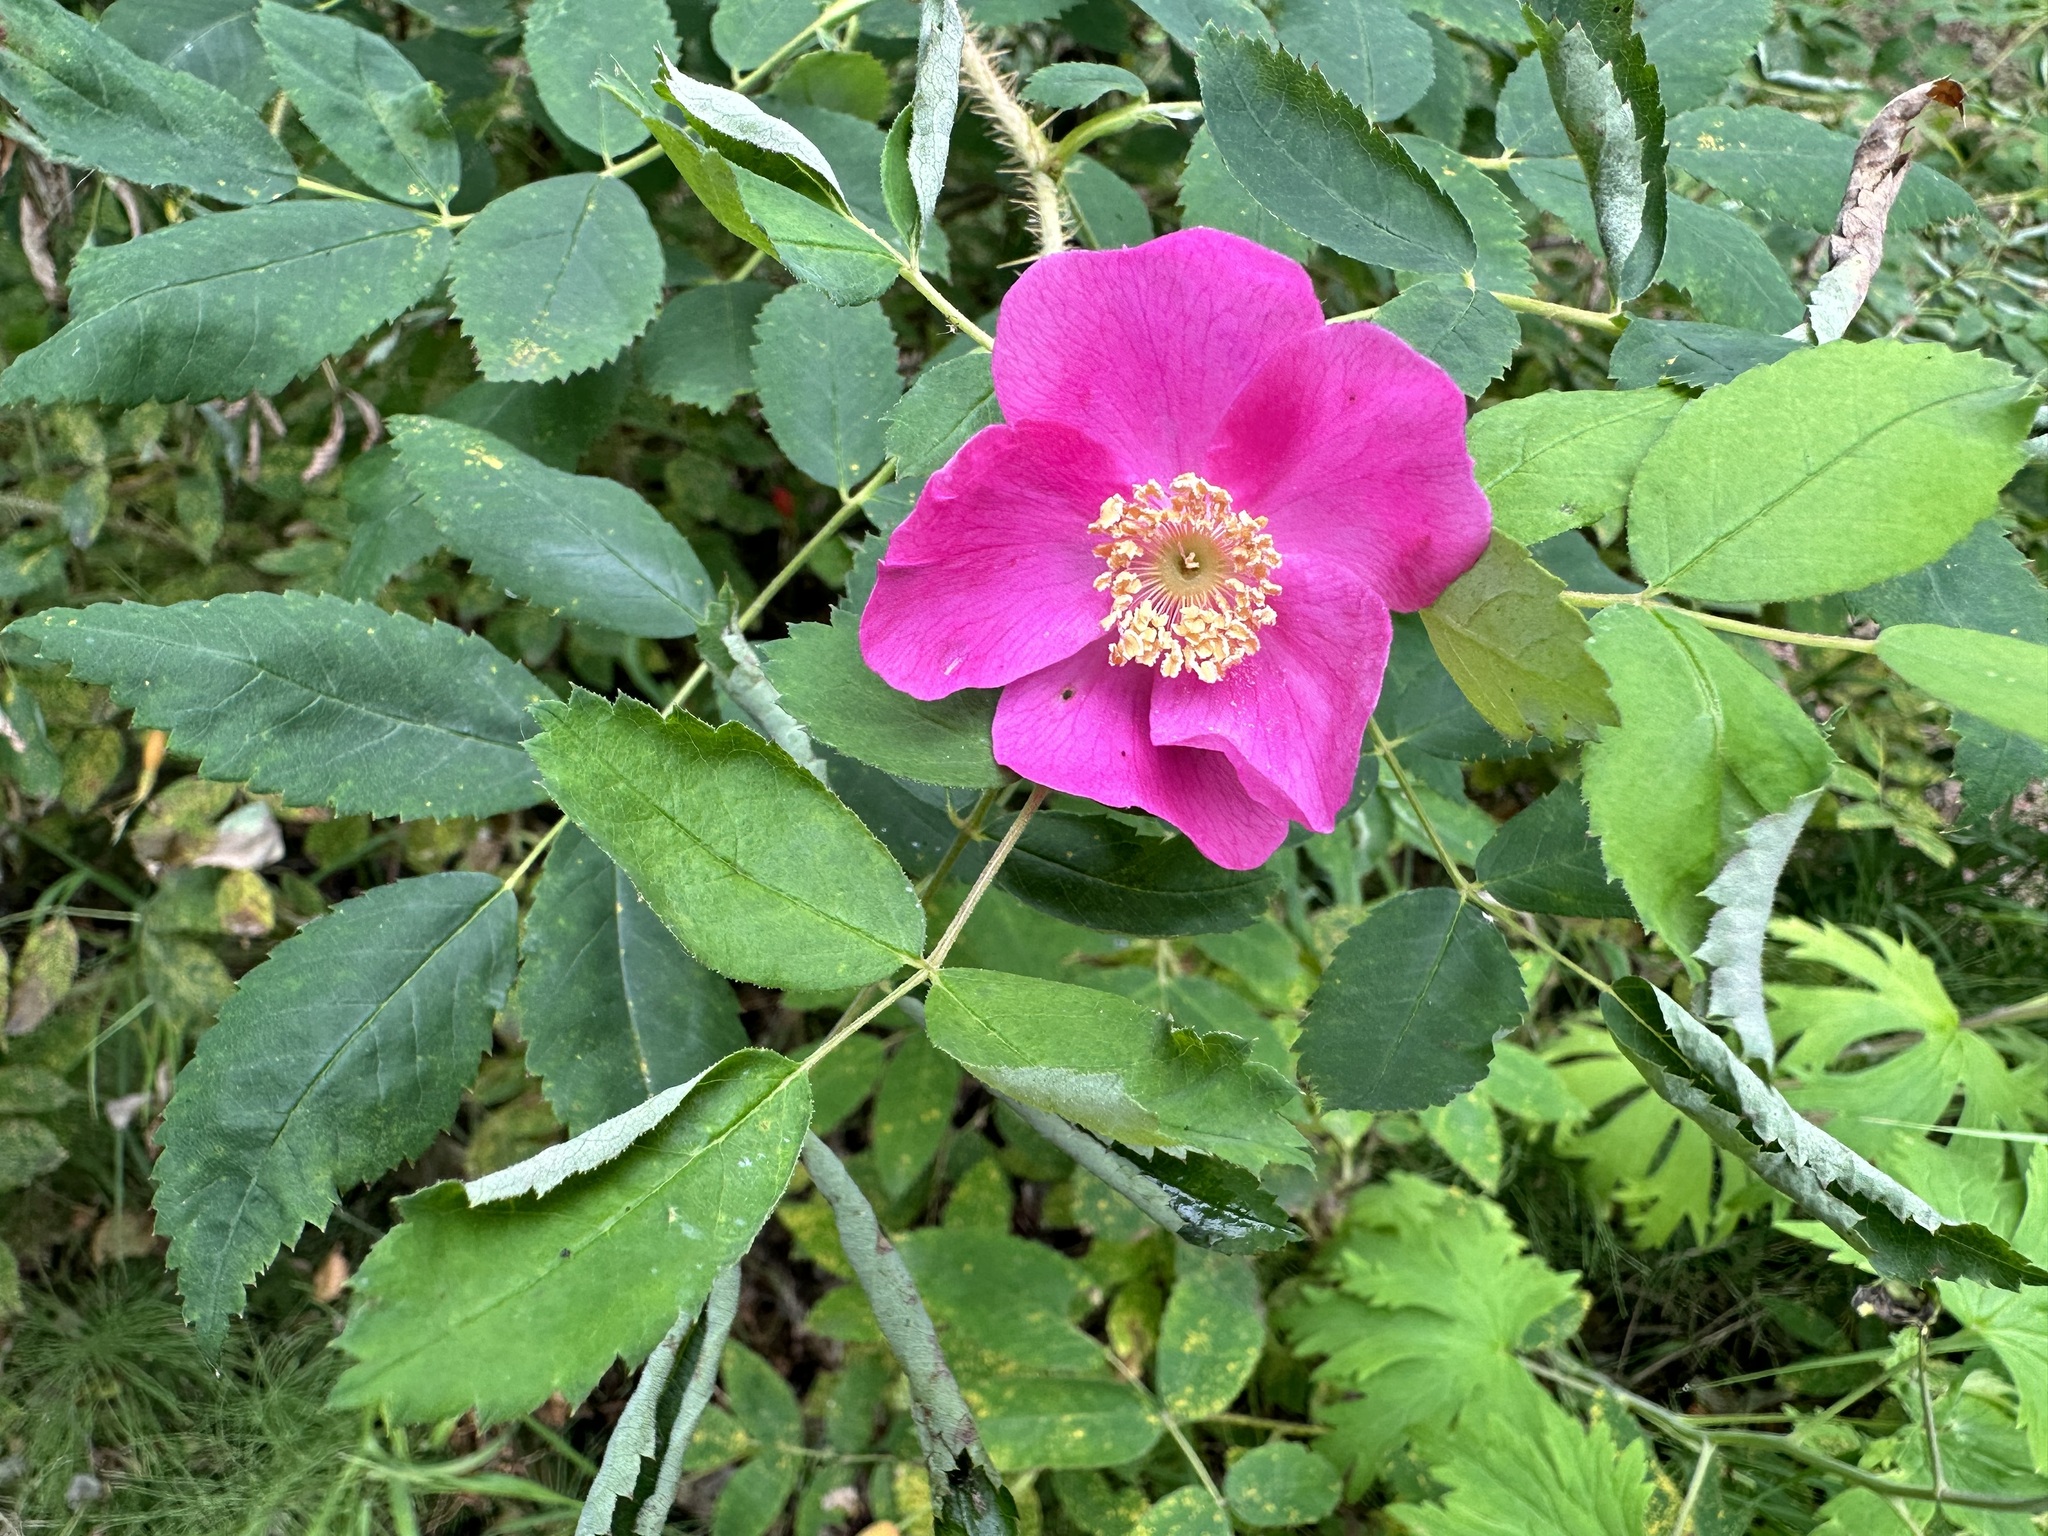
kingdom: Plantae
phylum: Tracheophyta
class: Magnoliopsida
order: Rosales
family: Rosaceae
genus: Rosa
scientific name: Rosa acicularis
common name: Prickly rose
